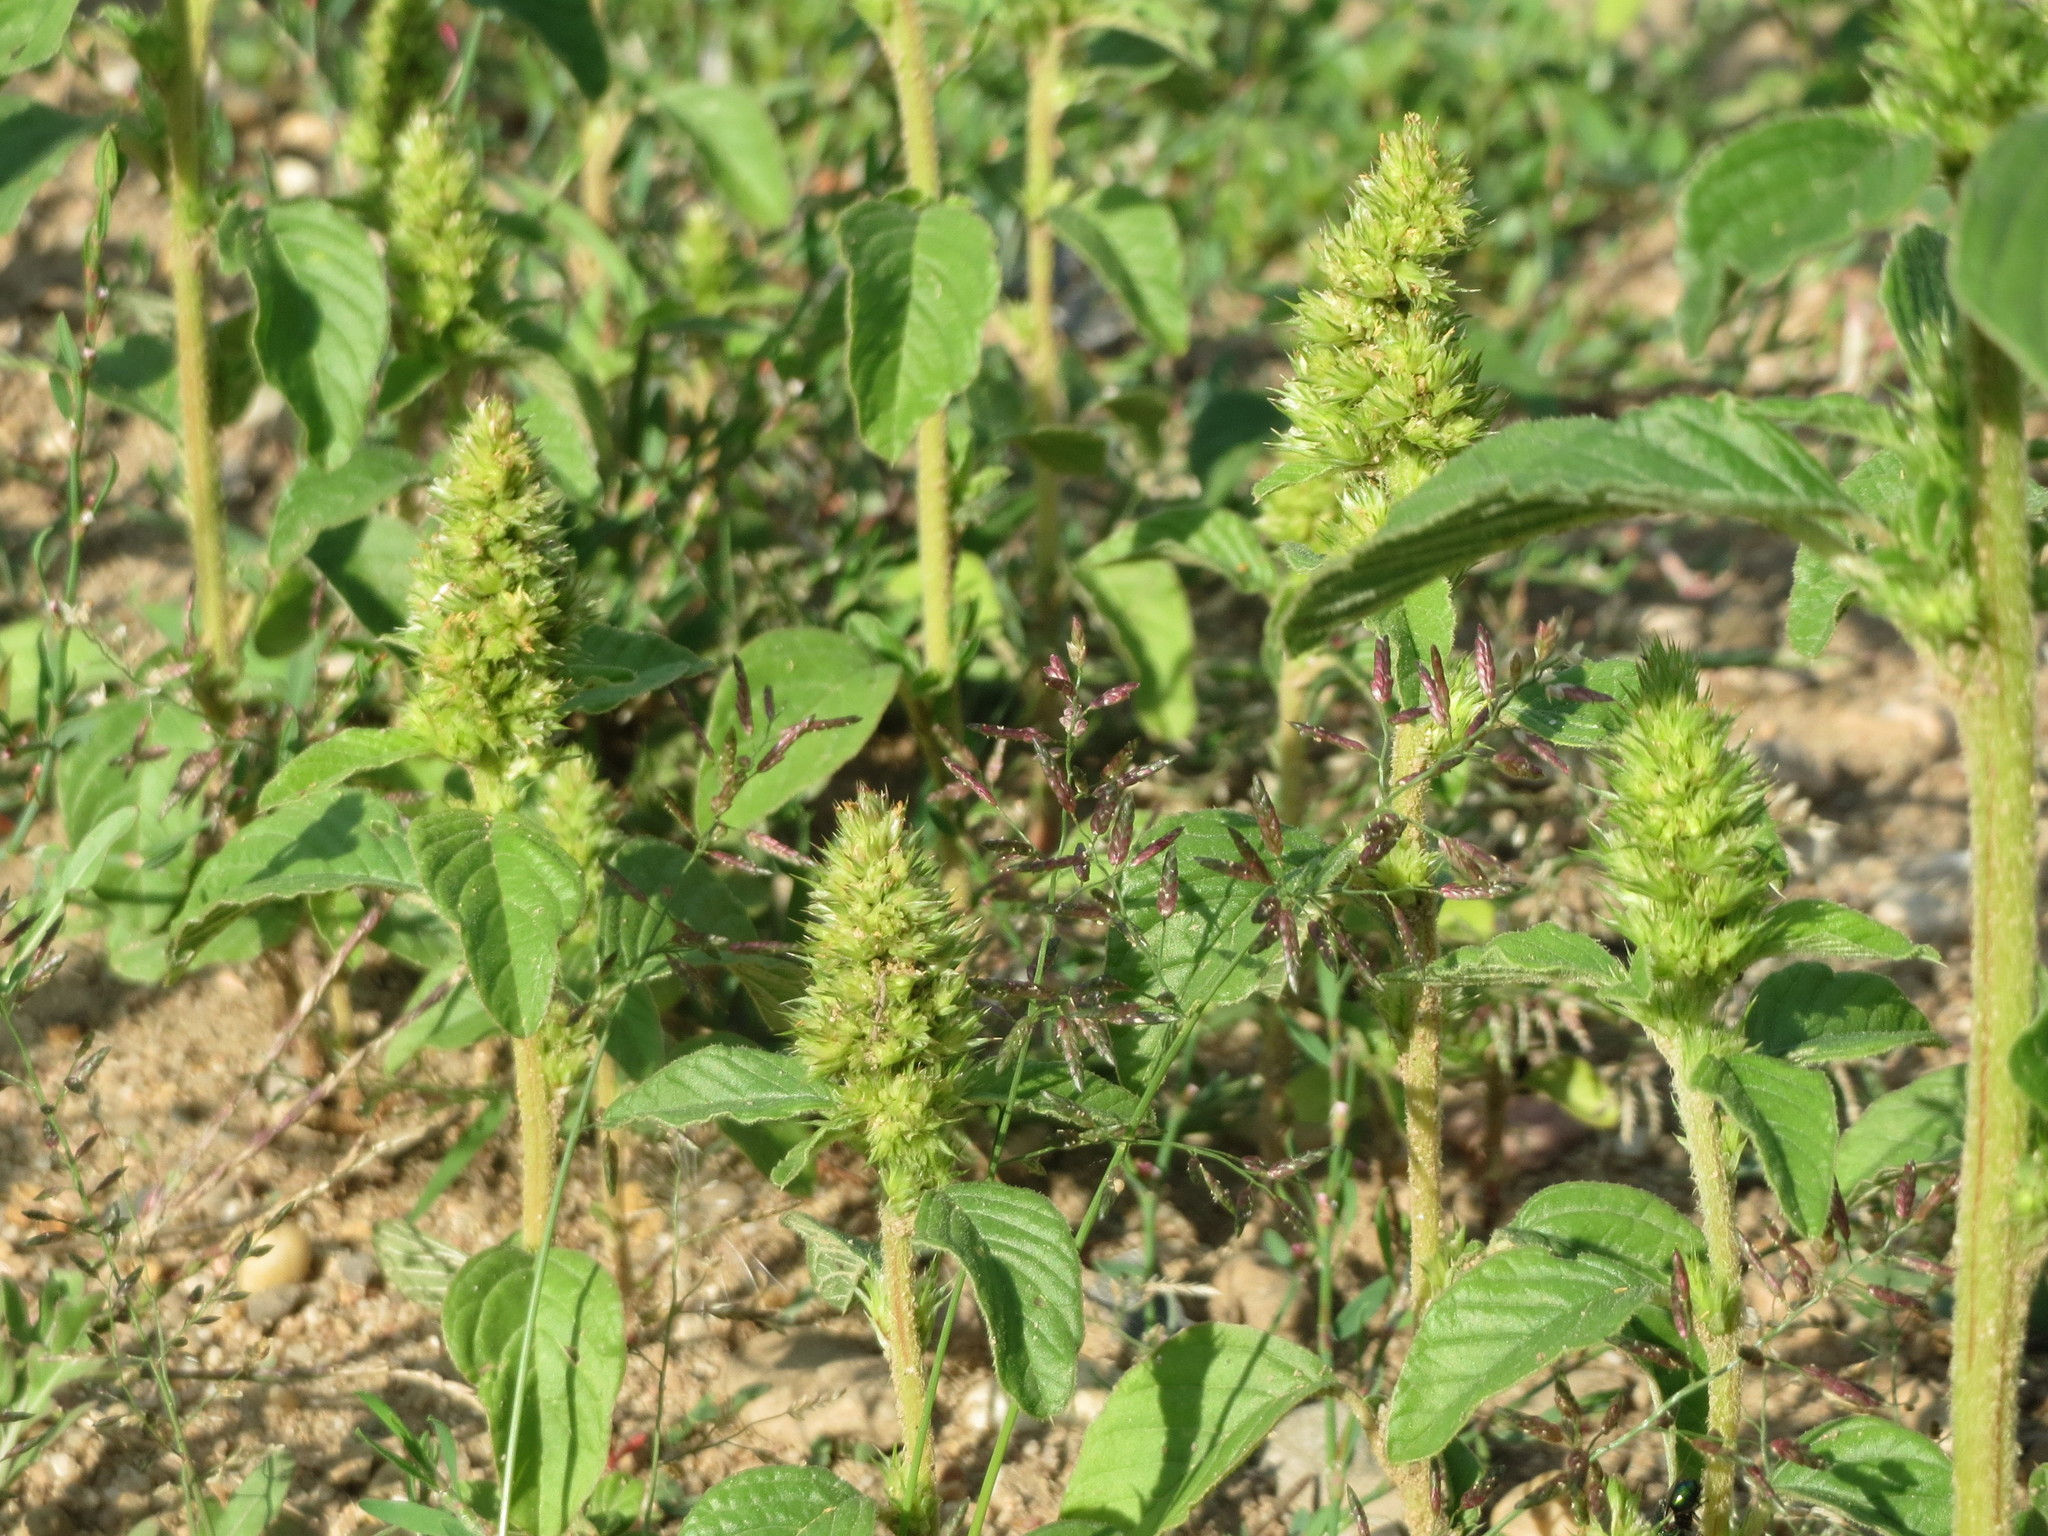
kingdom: Plantae
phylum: Tracheophyta
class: Magnoliopsida
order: Caryophyllales
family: Amaranthaceae
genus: Amaranthus
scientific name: Amaranthus retroflexus
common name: Redroot amaranth
